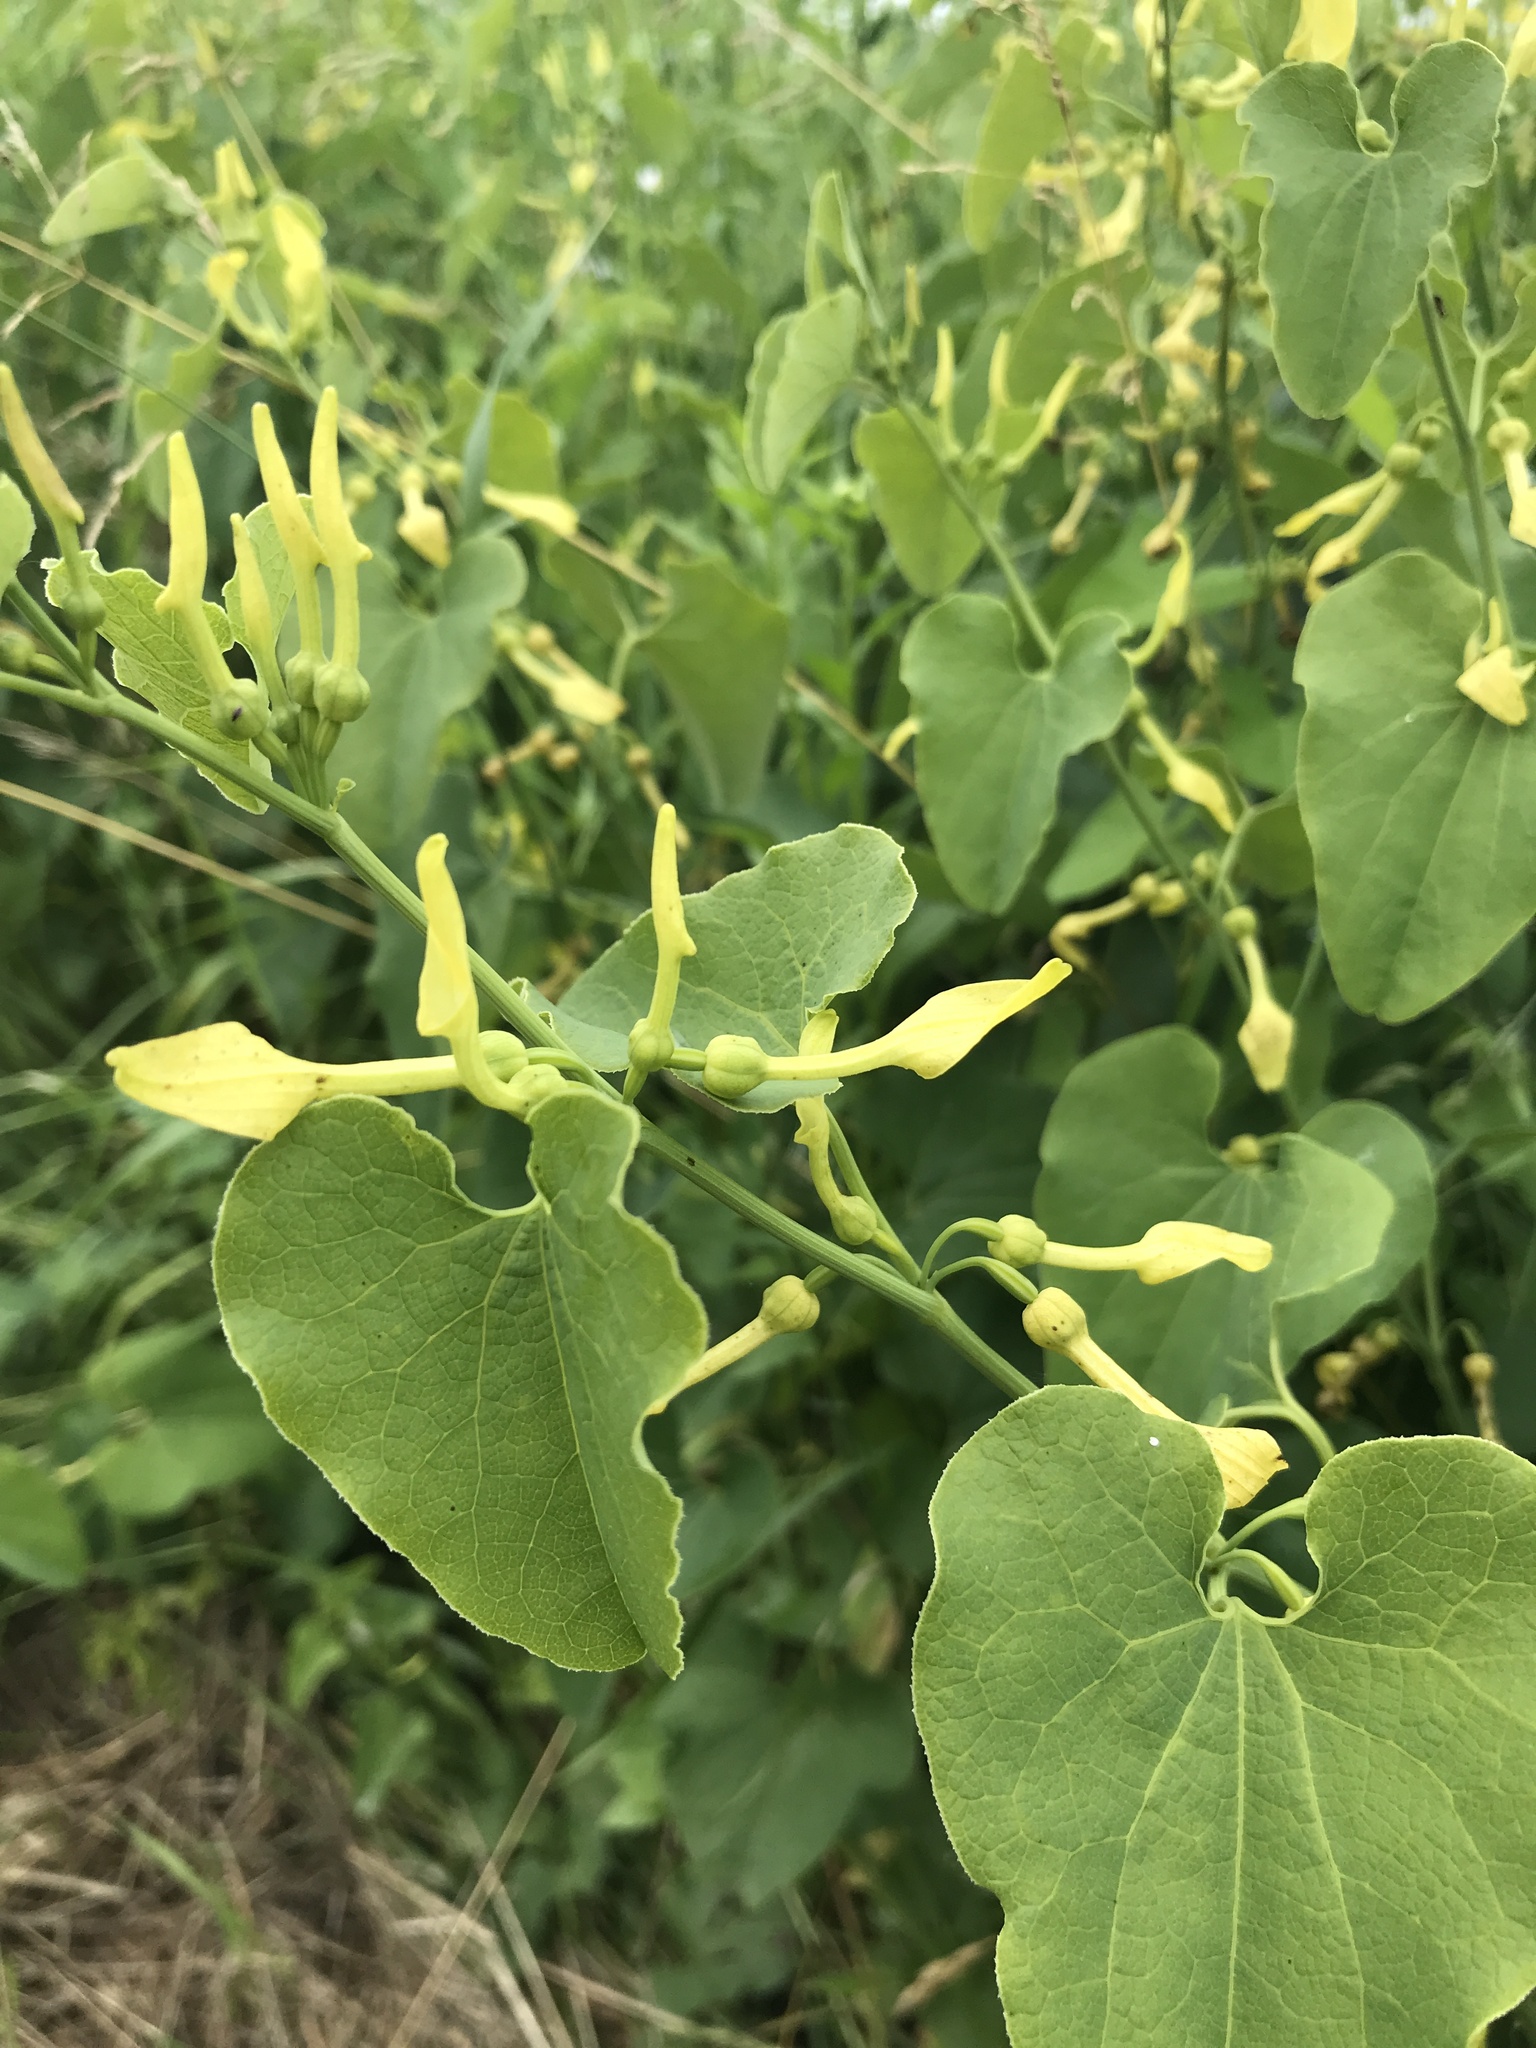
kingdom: Plantae
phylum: Tracheophyta
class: Magnoliopsida
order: Piperales
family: Aristolochiaceae
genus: Aristolochia
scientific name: Aristolochia clematitis
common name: Birthwort
